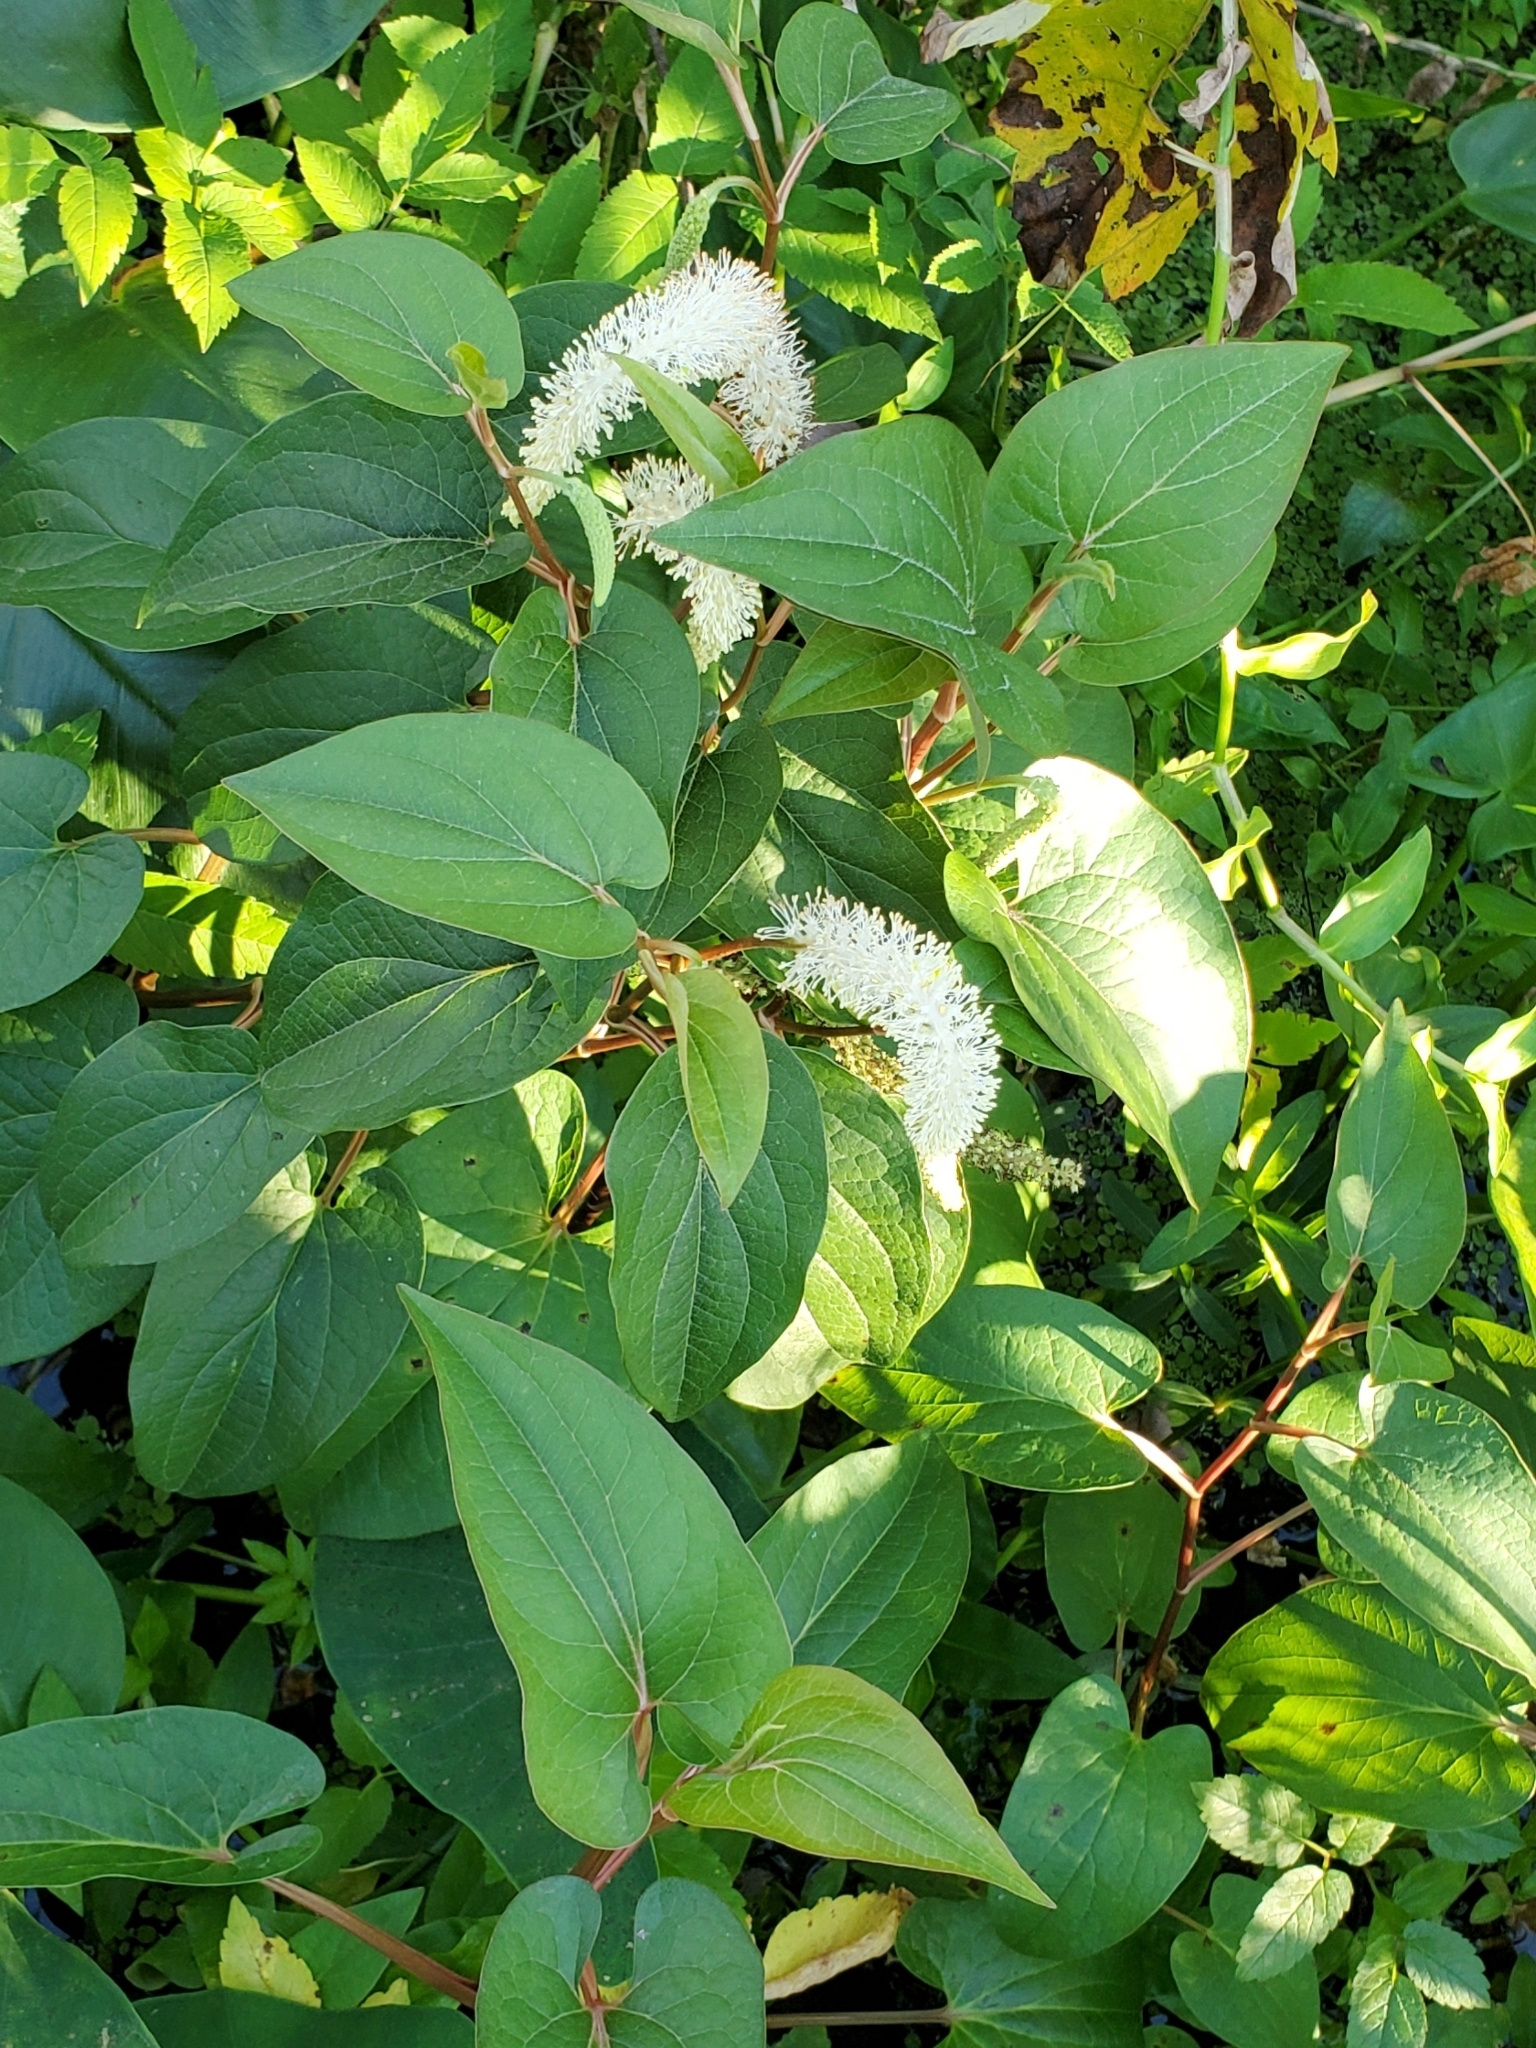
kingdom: Plantae
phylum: Tracheophyta
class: Magnoliopsida
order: Piperales
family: Saururaceae
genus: Saururus
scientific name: Saururus cernuus
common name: Lizard's-tail
